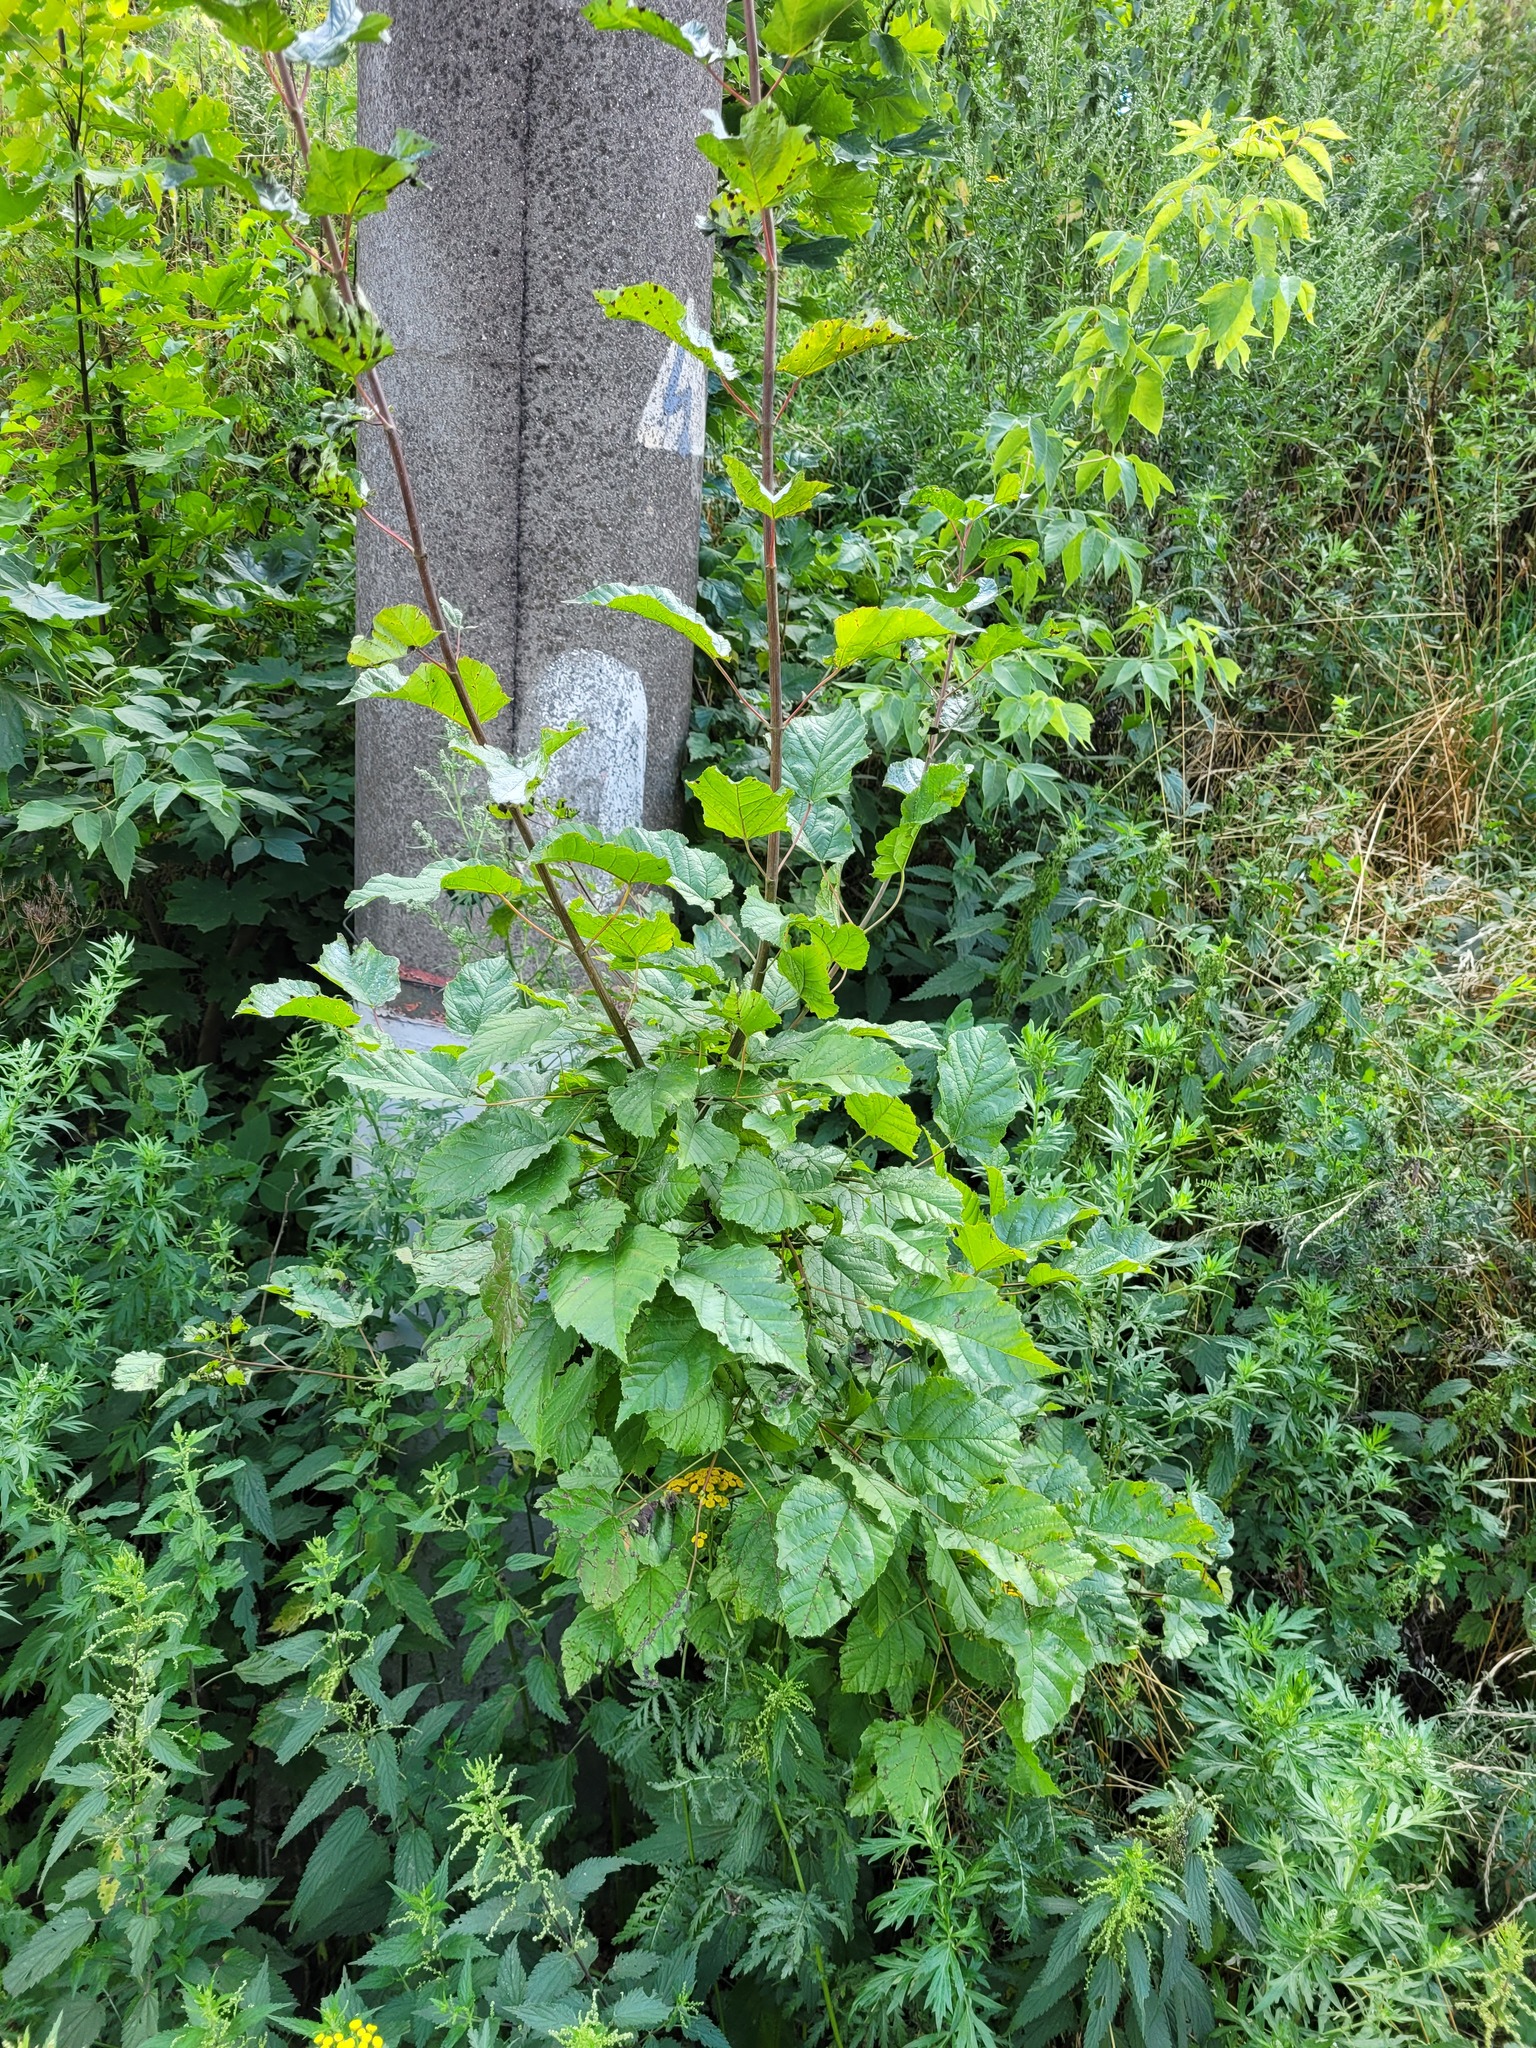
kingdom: Plantae
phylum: Tracheophyta
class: Magnoliopsida
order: Sapindales
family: Sapindaceae
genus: Acer
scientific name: Acer tataricum
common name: Tartar maple
